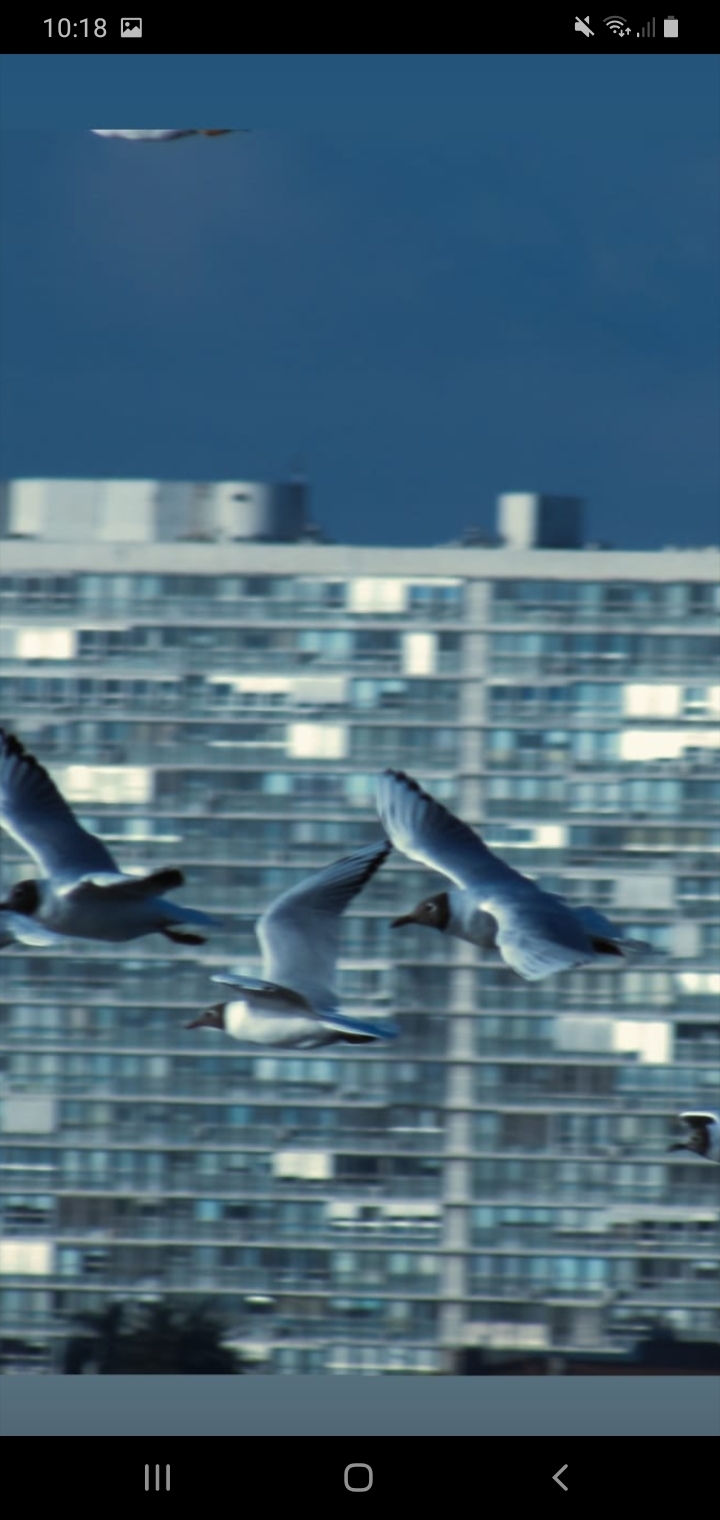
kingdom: Animalia
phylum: Chordata
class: Aves
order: Charadriiformes
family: Laridae
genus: Chroicocephalus
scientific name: Chroicocephalus maculipennis
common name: Brown-hooded gull
